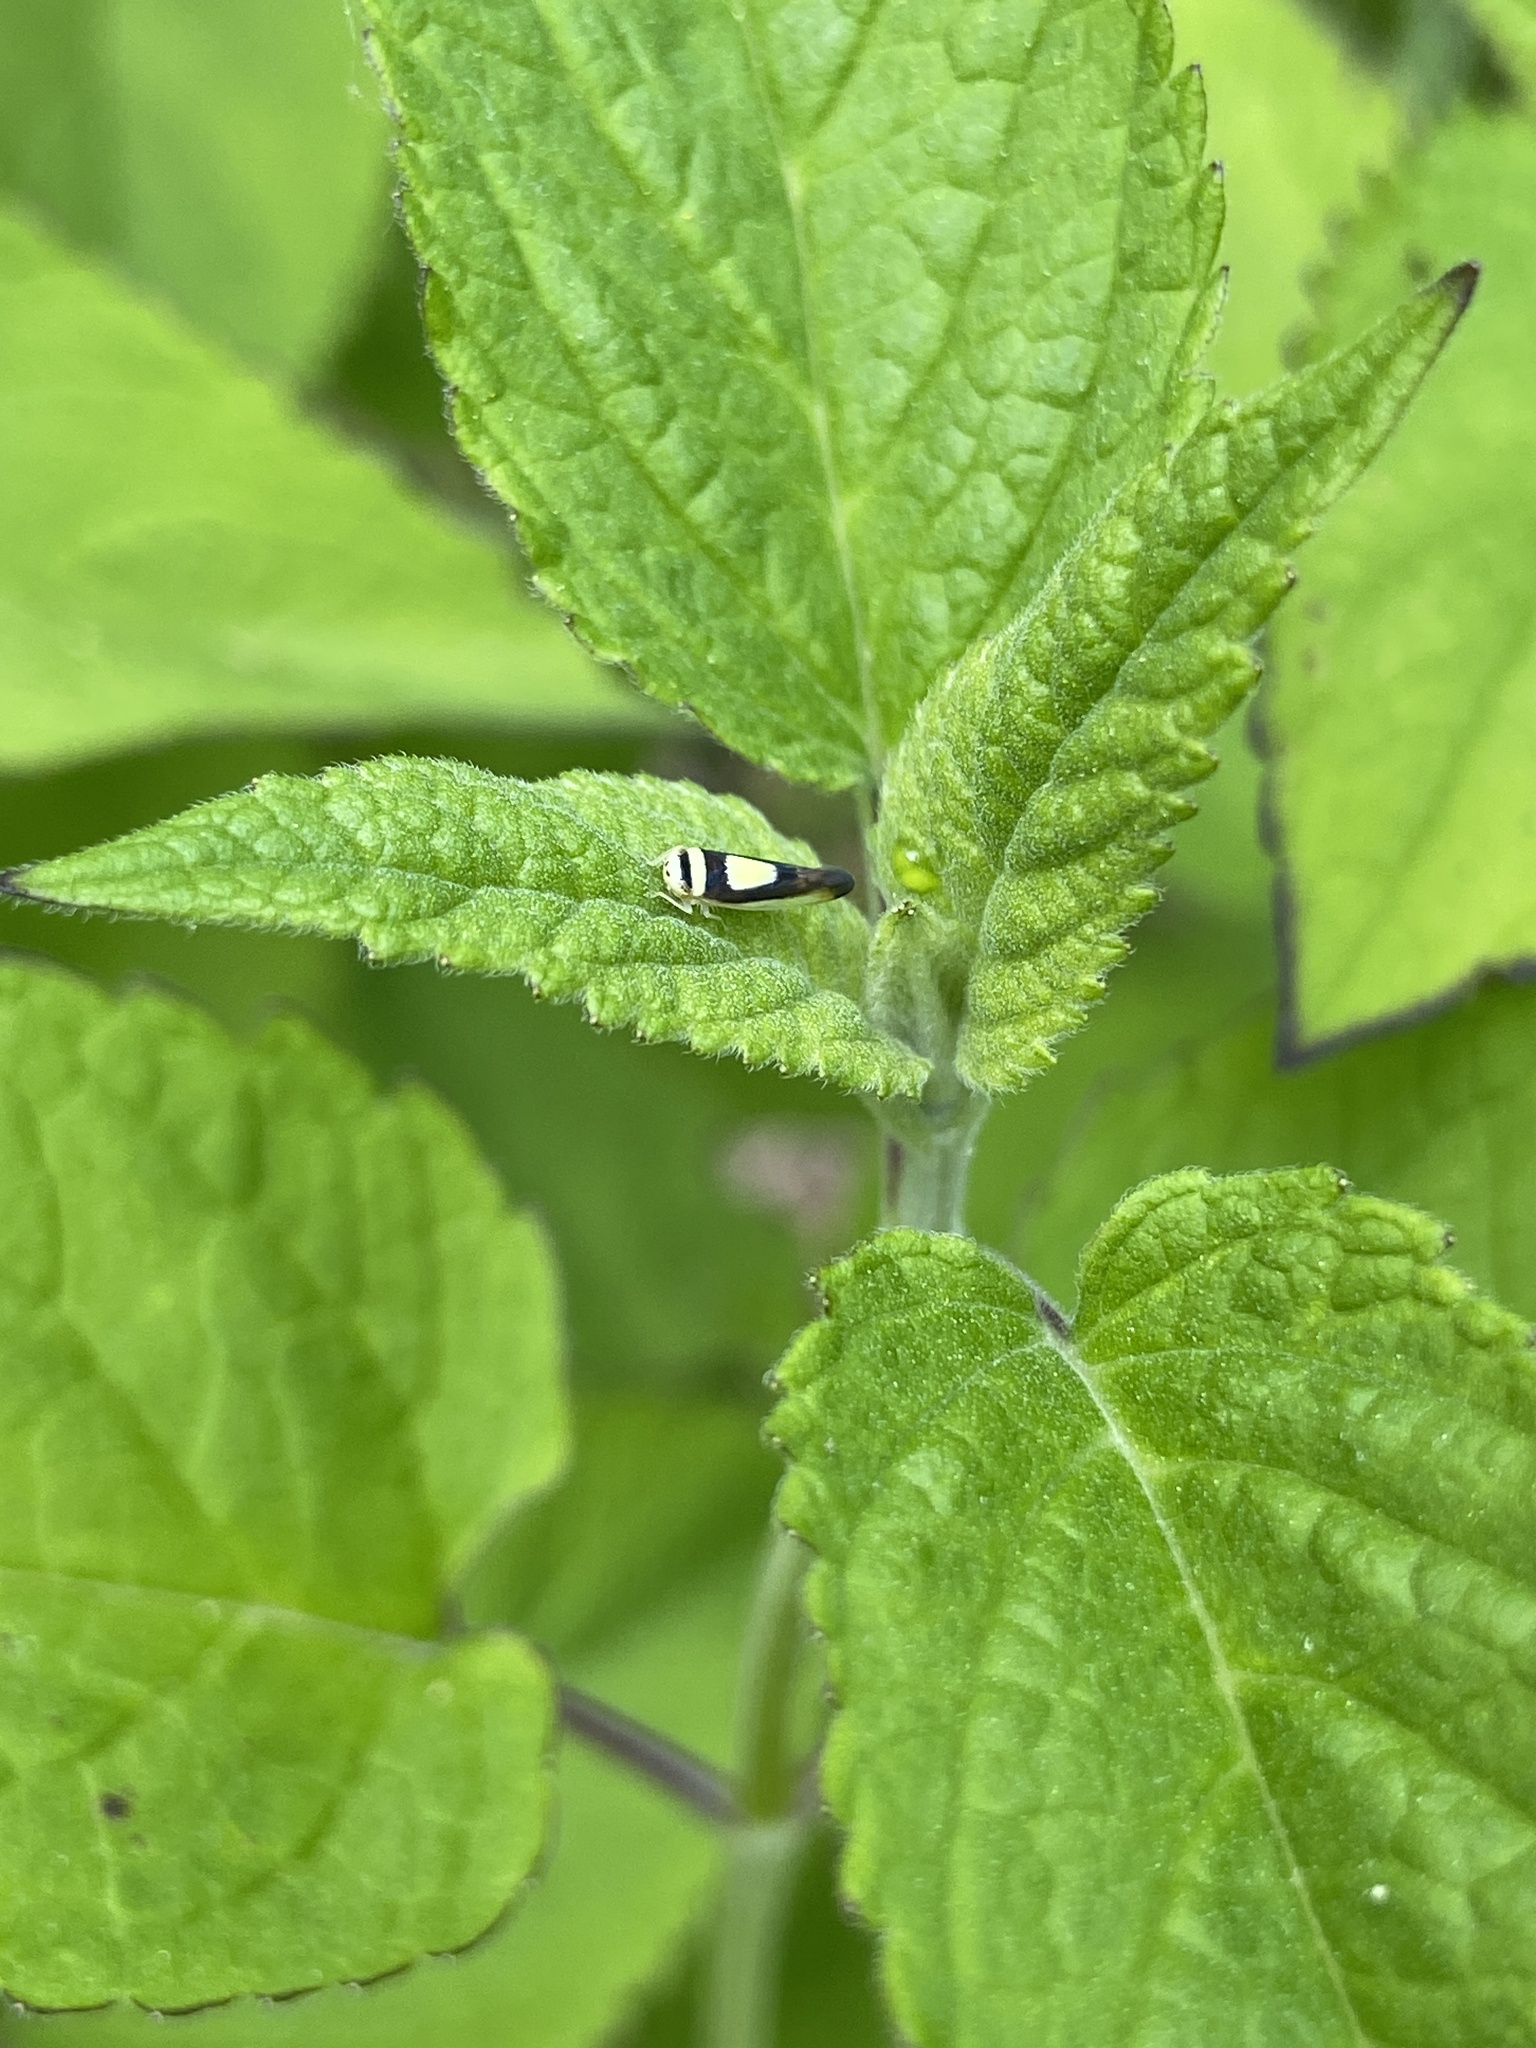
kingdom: Animalia
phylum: Arthropoda
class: Insecta
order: Hemiptera
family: Cicadellidae
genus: Colladonus
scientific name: Colladonus clitellarius
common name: The saddleback leafhopper
